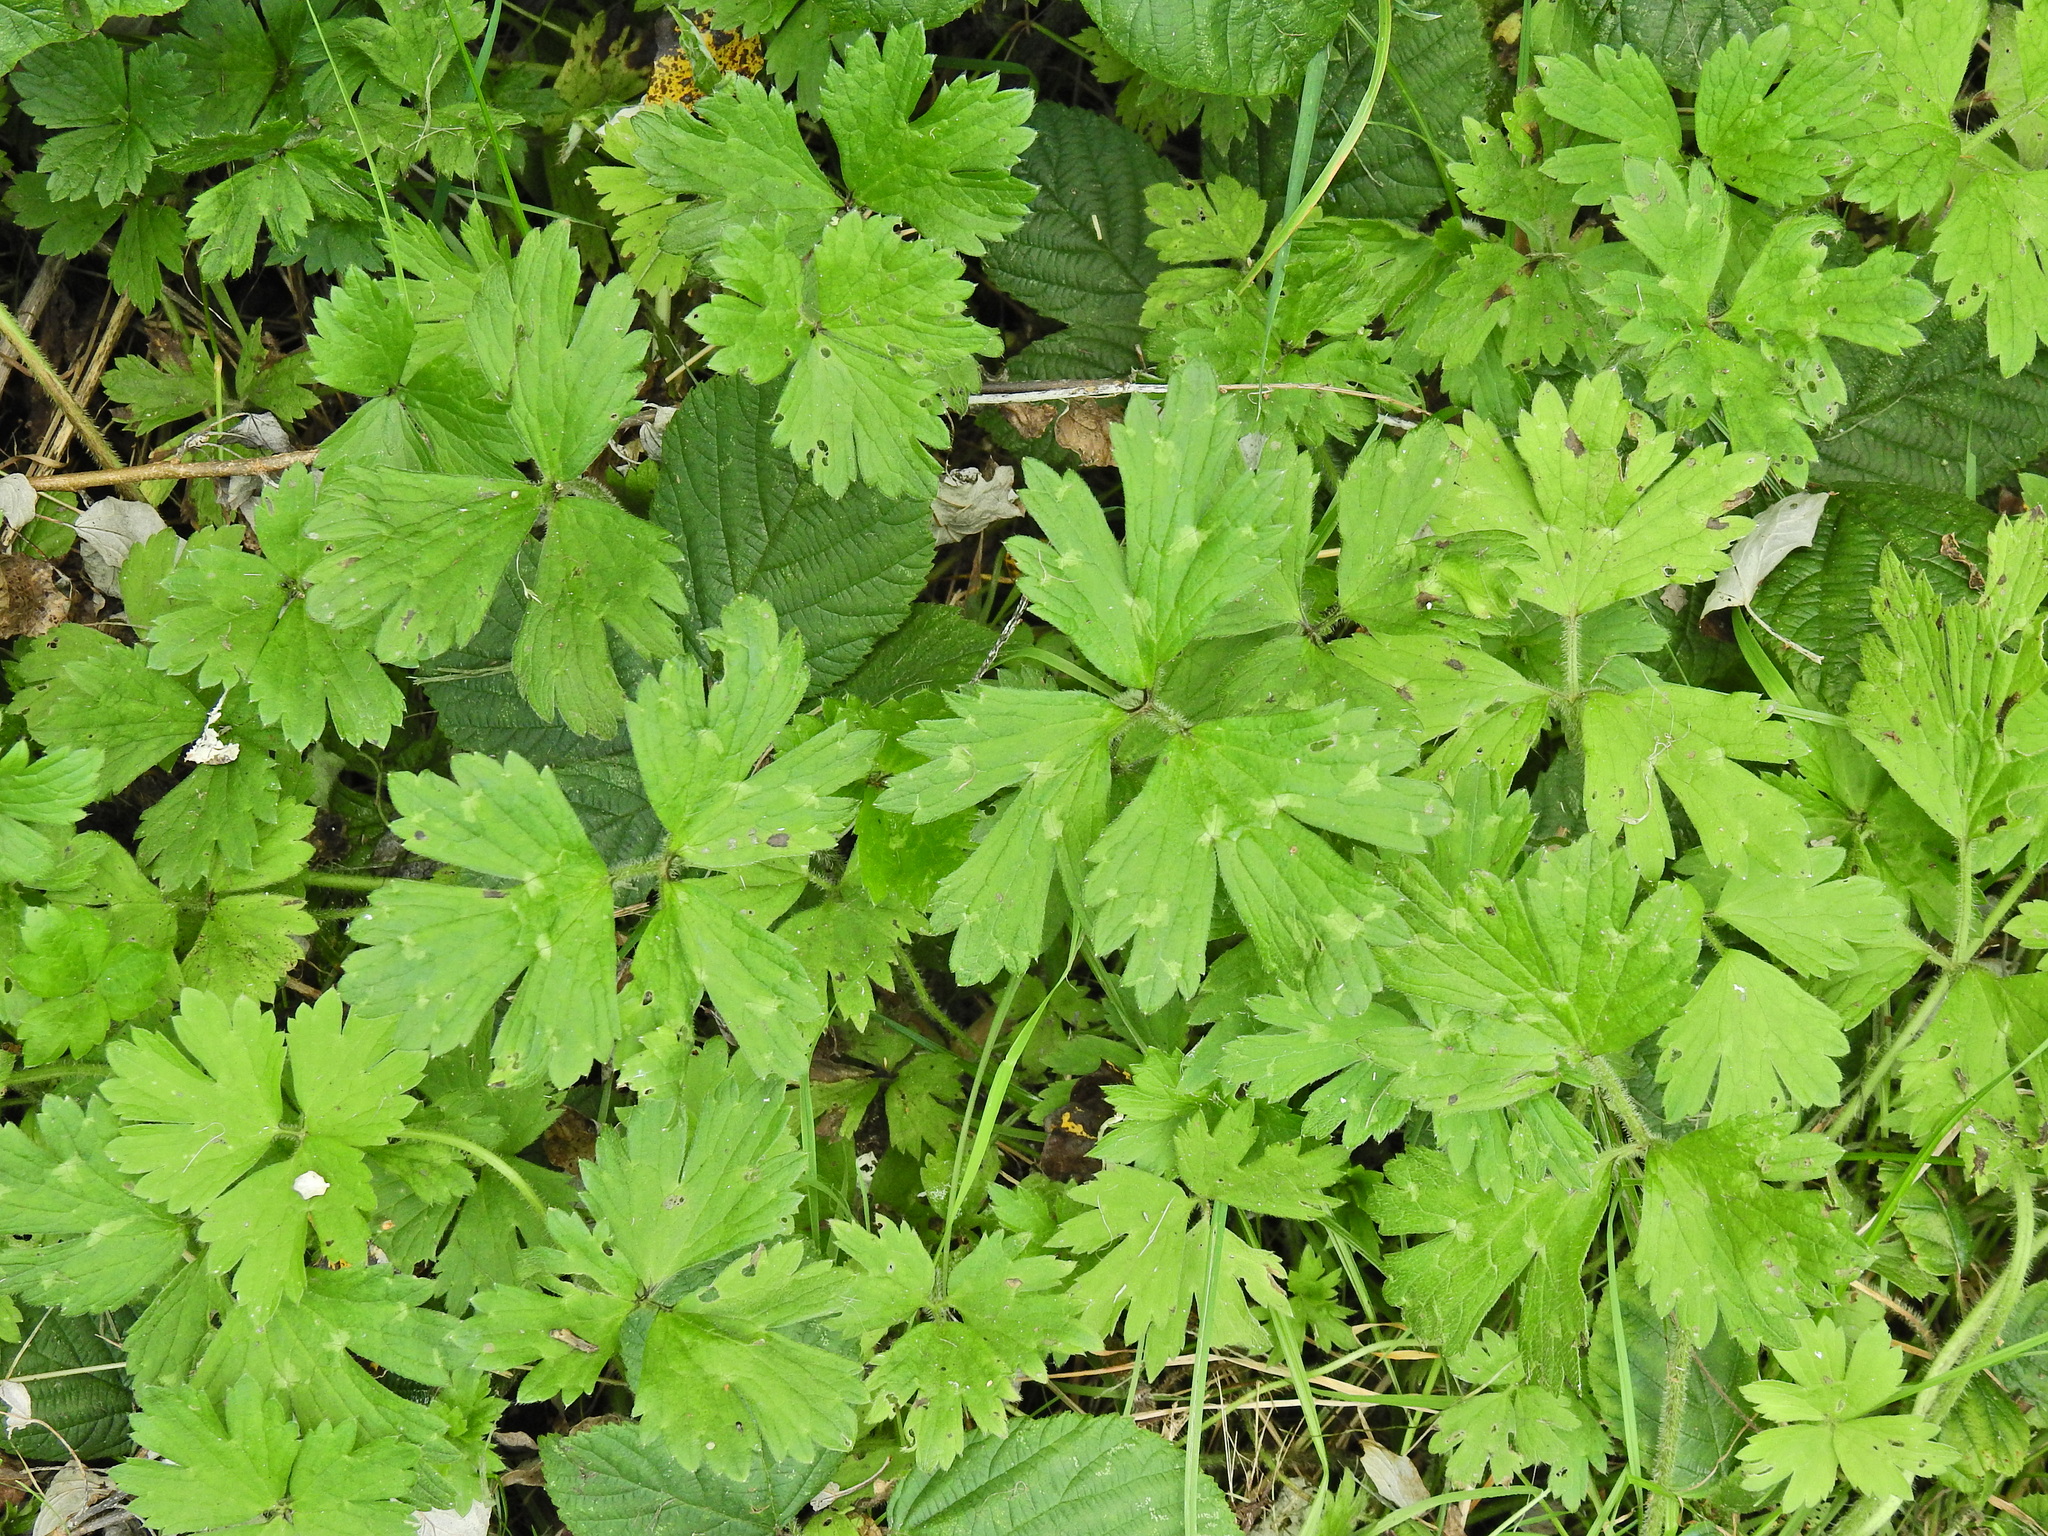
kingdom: Plantae
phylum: Tracheophyta
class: Magnoliopsida
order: Ranunculales
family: Ranunculaceae
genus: Ranunculus
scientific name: Ranunculus repens
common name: Creeping buttercup
